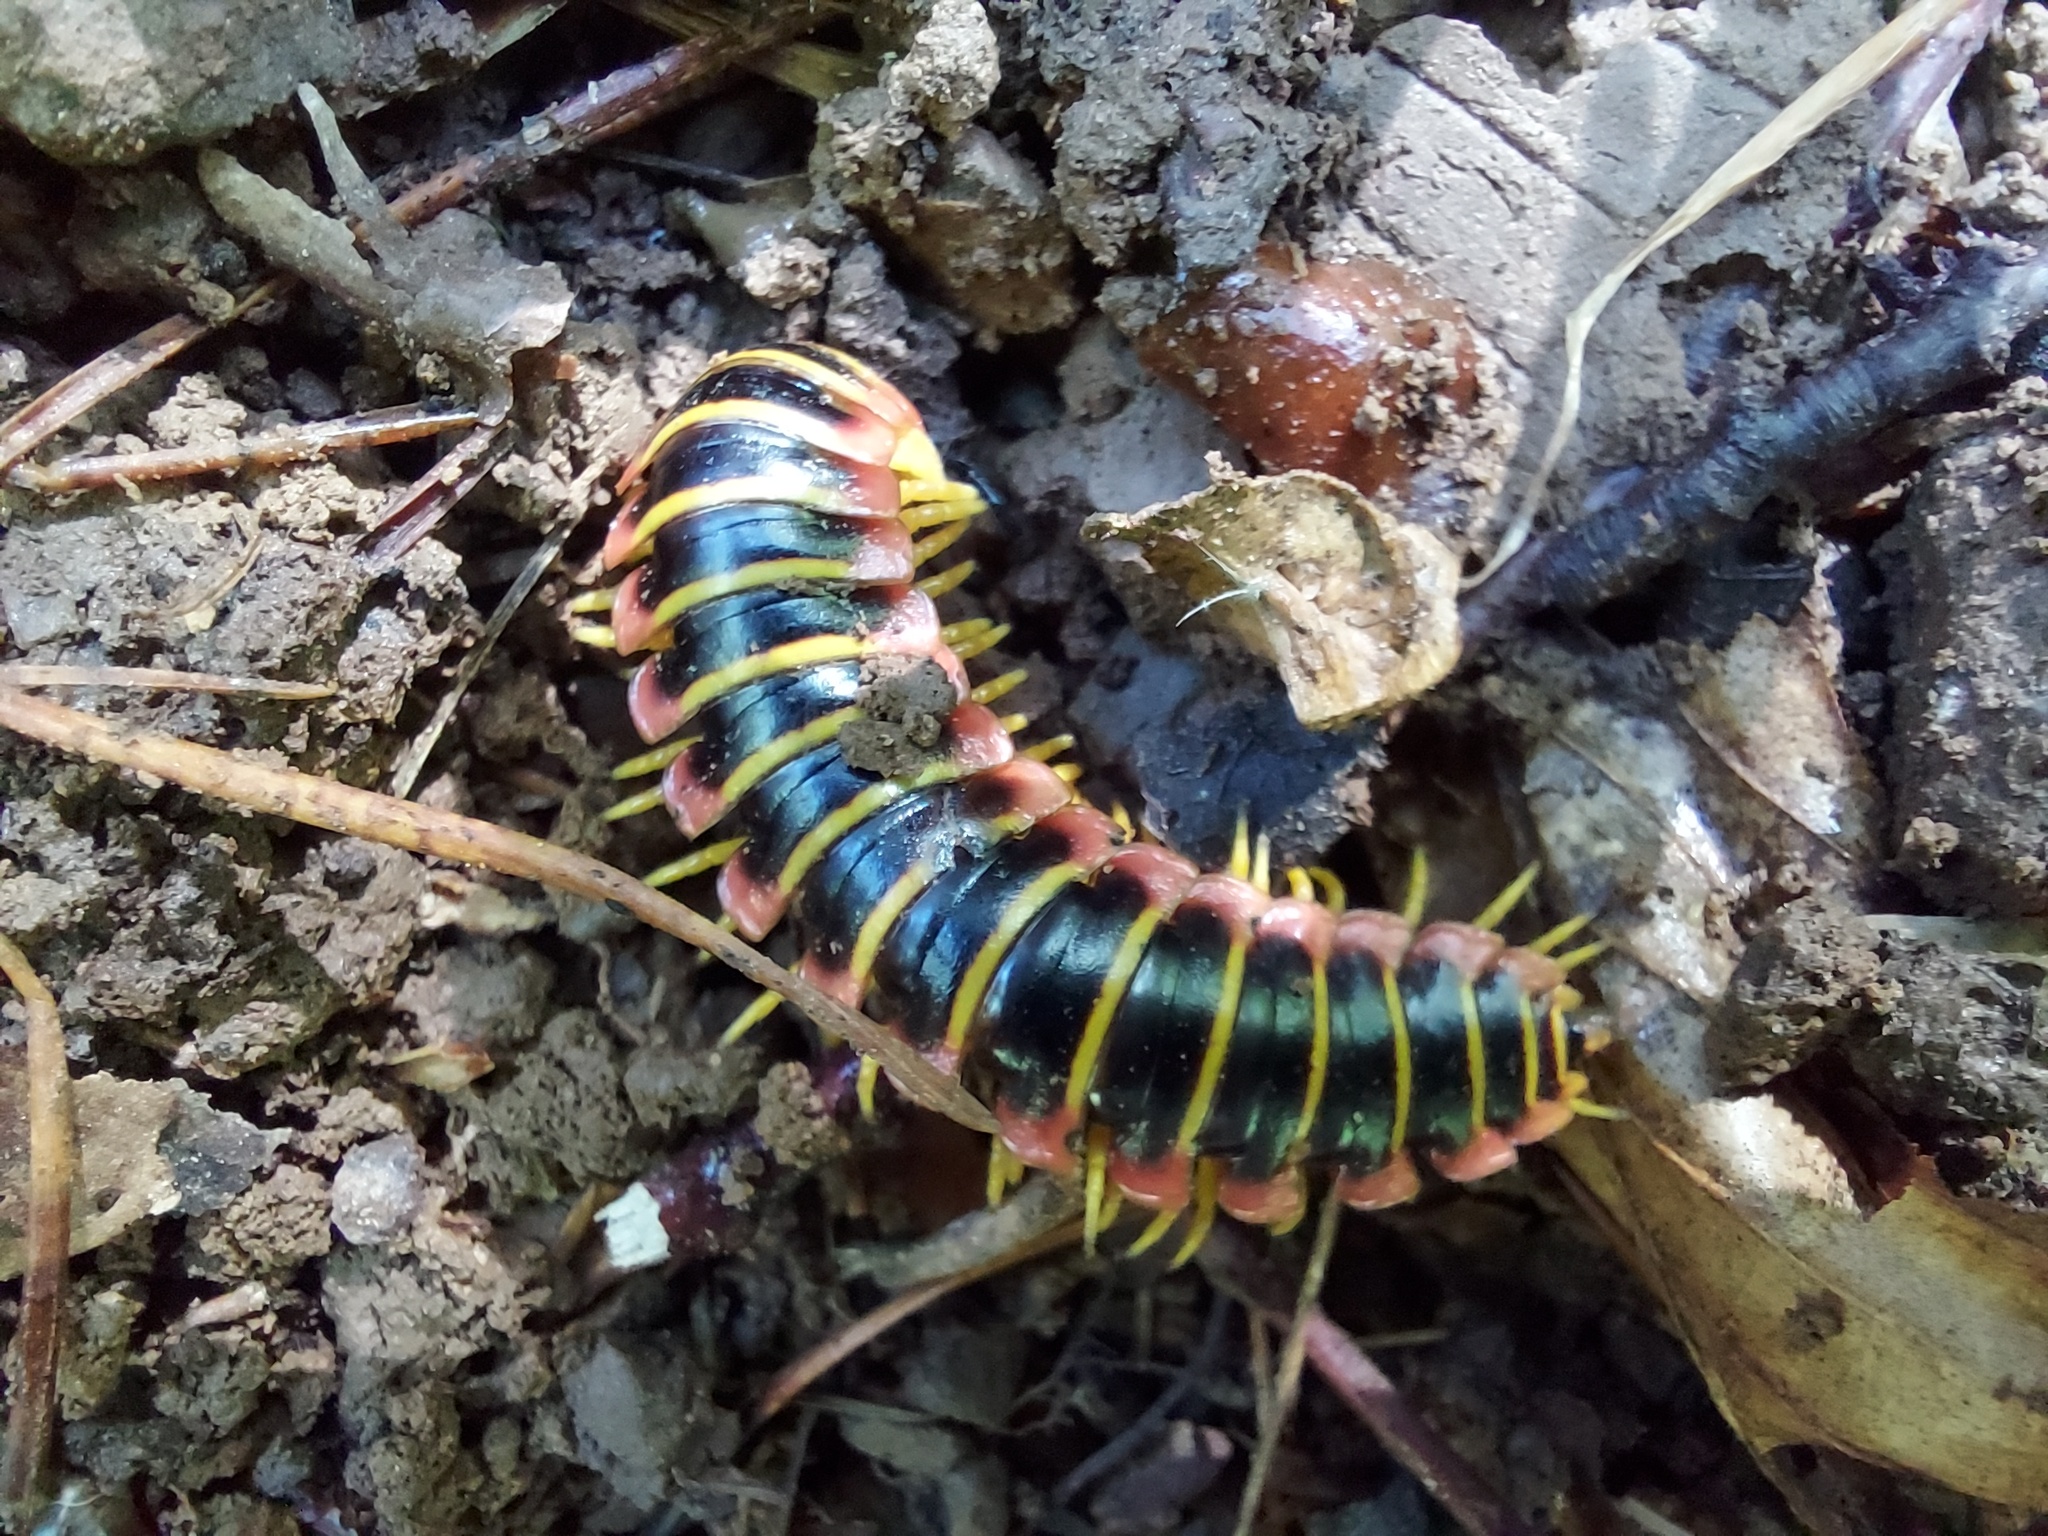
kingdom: Animalia
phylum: Arthropoda
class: Diplopoda
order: Polydesmida
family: Xystodesmidae
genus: Apheloria
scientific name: Apheloria virginiensis
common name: Black-and-gold flat millipede
